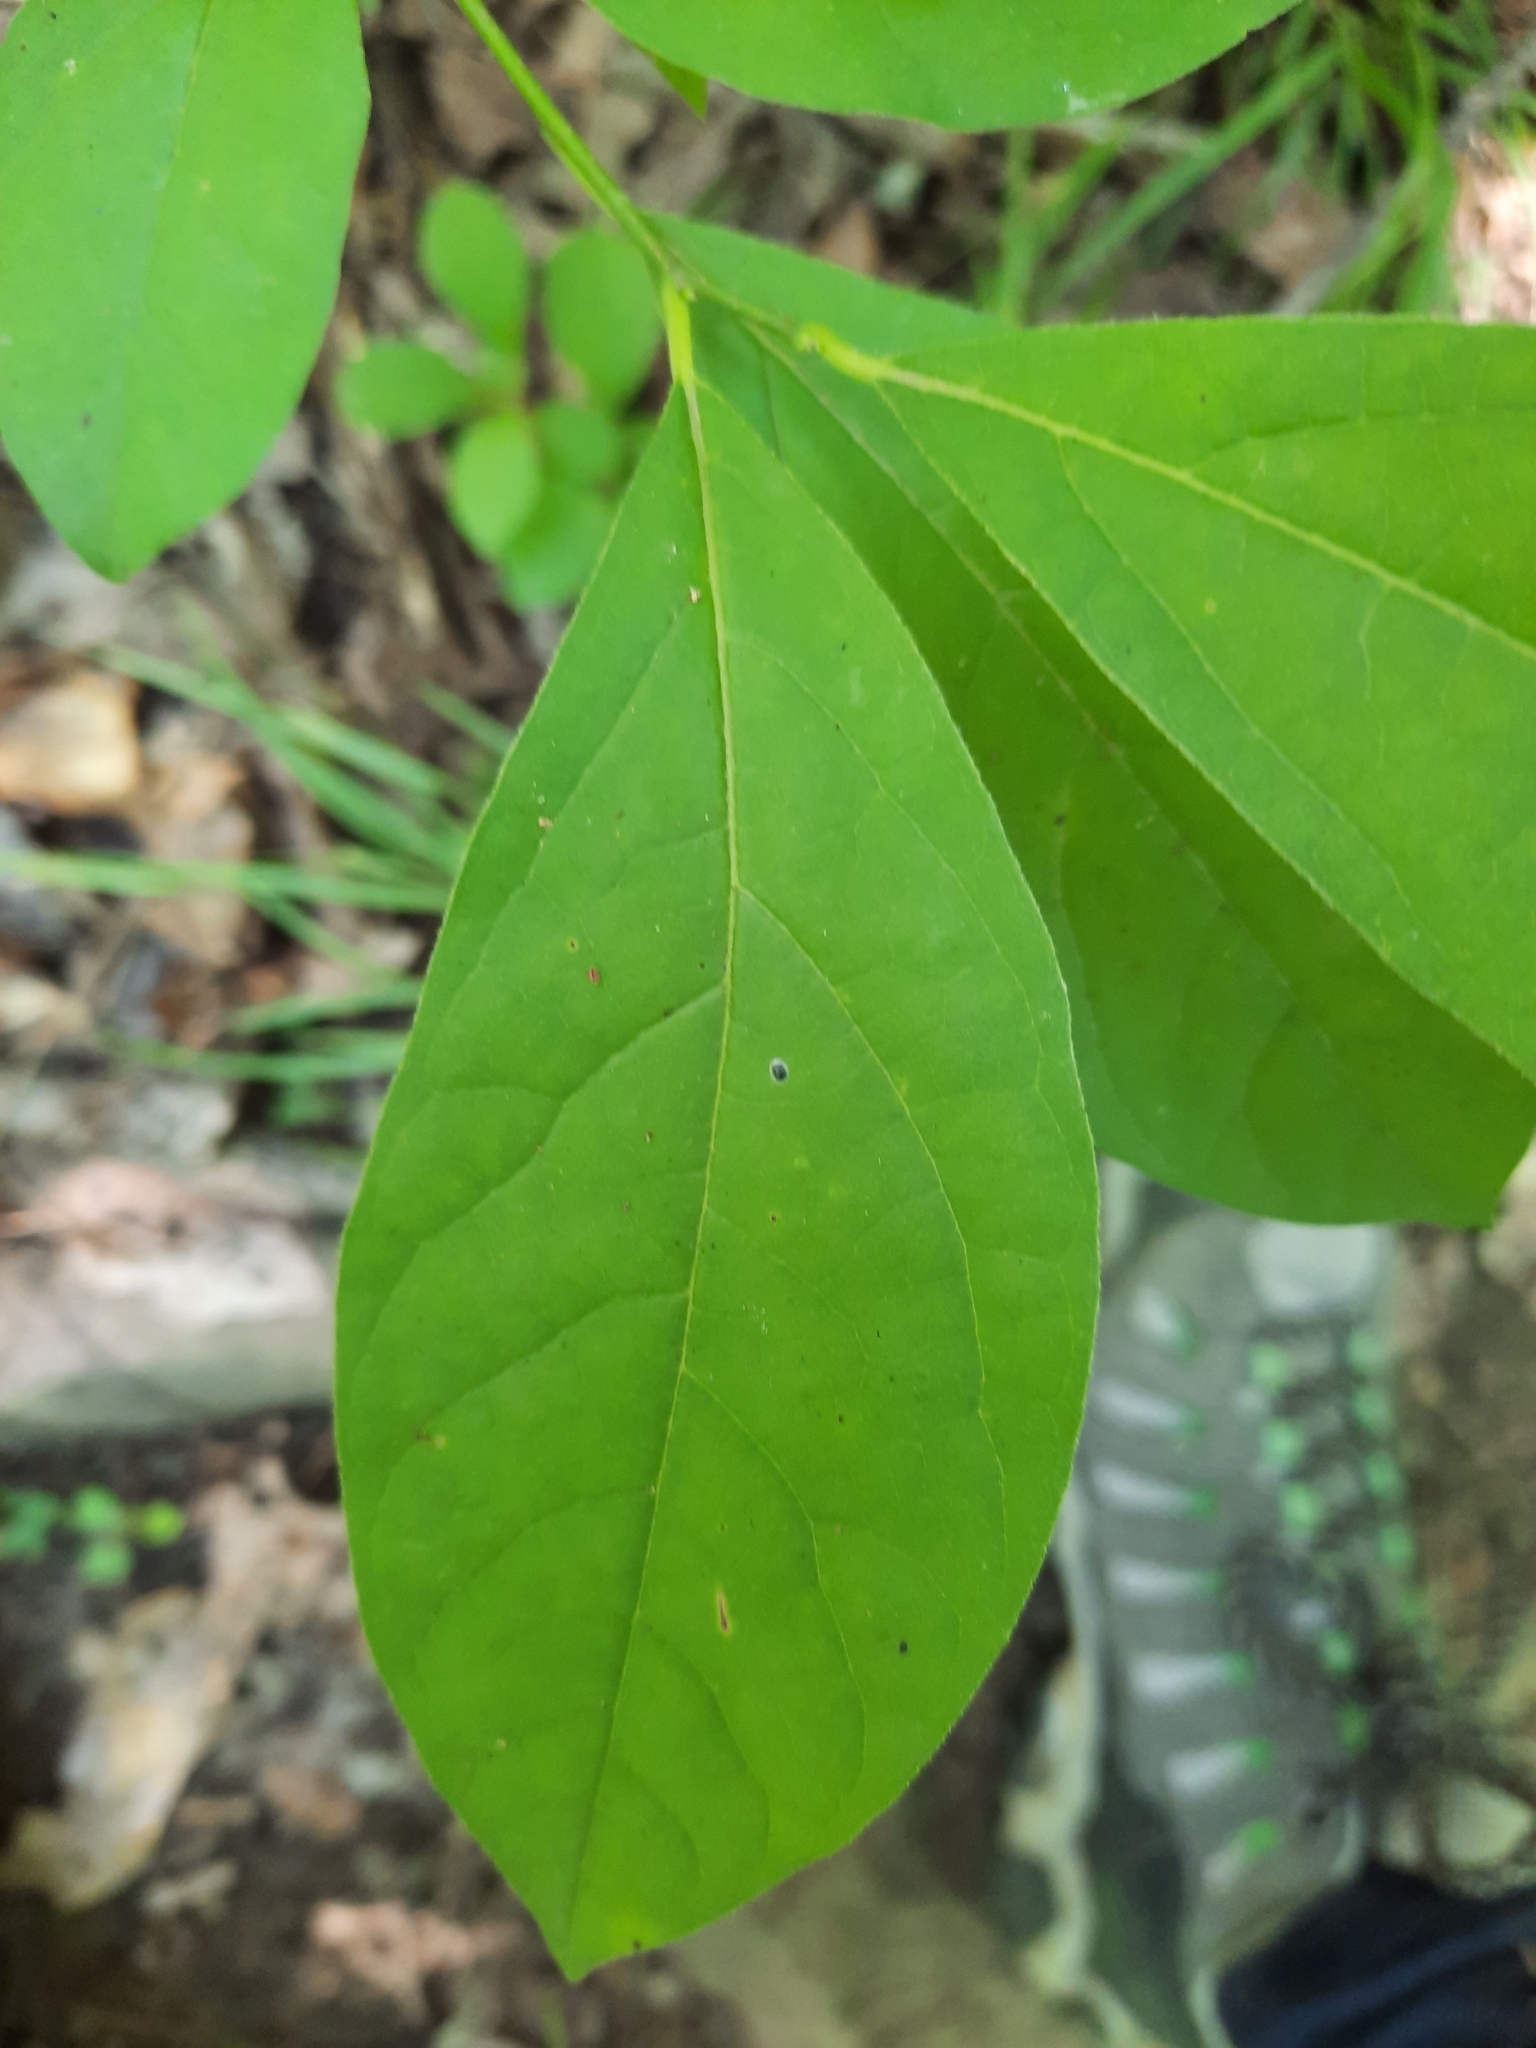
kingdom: Plantae
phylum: Tracheophyta
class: Magnoliopsida
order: Laurales
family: Lauraceae
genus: Lindera
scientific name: Lindera benzoin
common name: Spicebush
